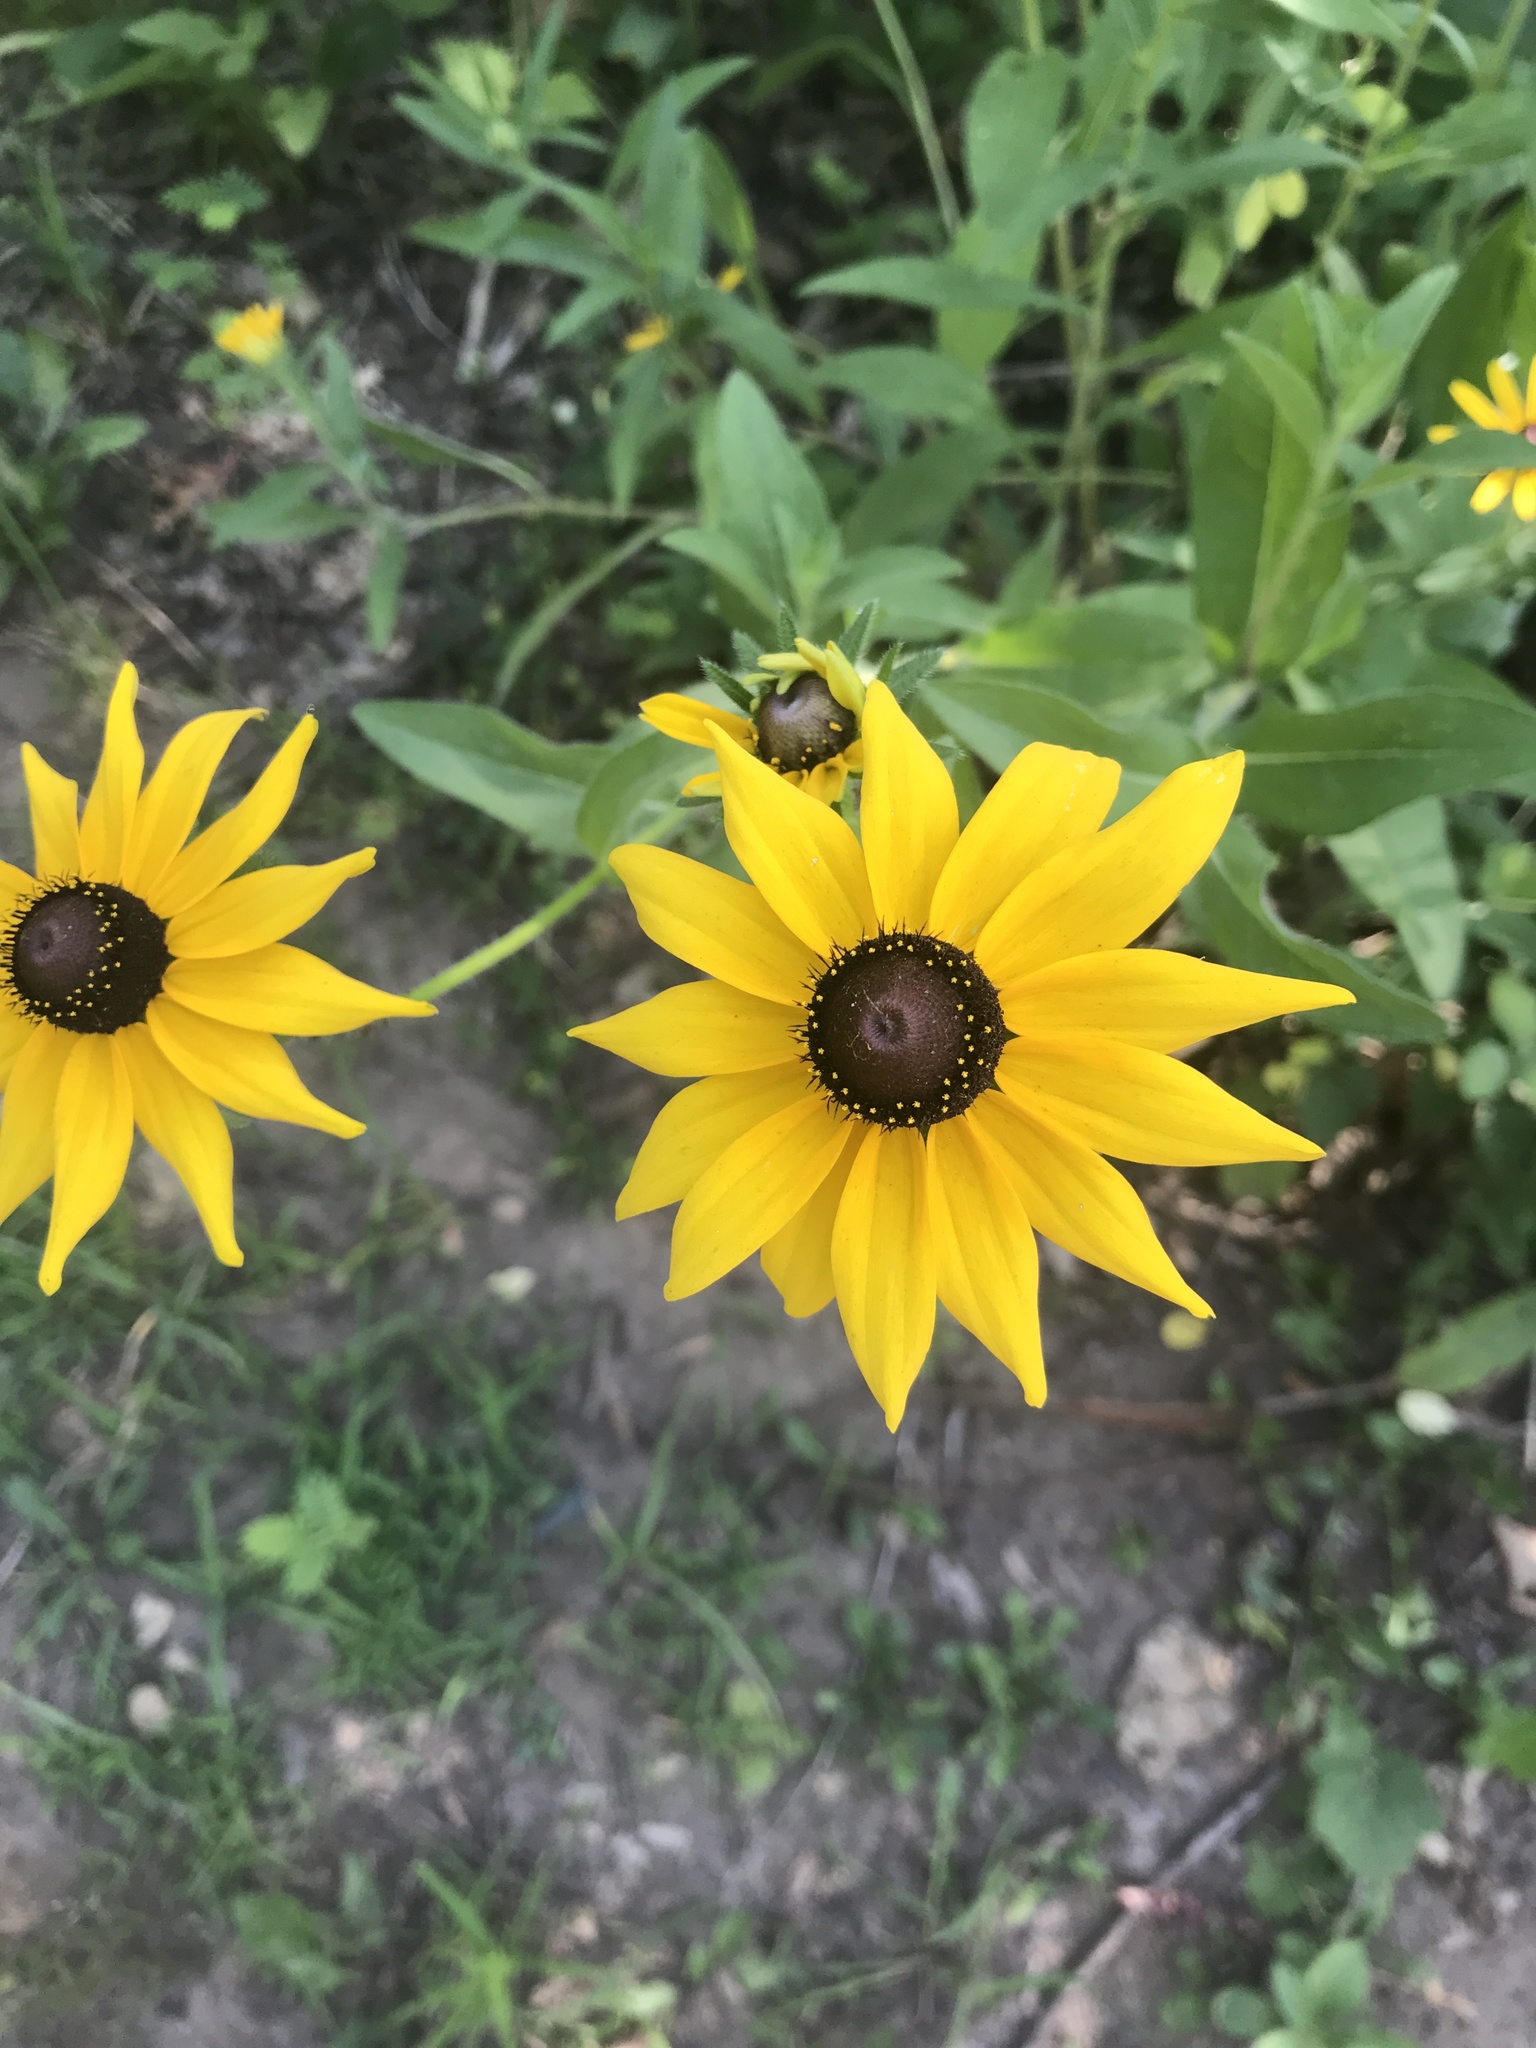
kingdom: Plantae
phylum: Tracheophyta
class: Magnoliopsida
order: Asterales
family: Asteraceae
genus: Rudbeckia
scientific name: Rudbeckia hirta
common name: Black-eyed-susan
